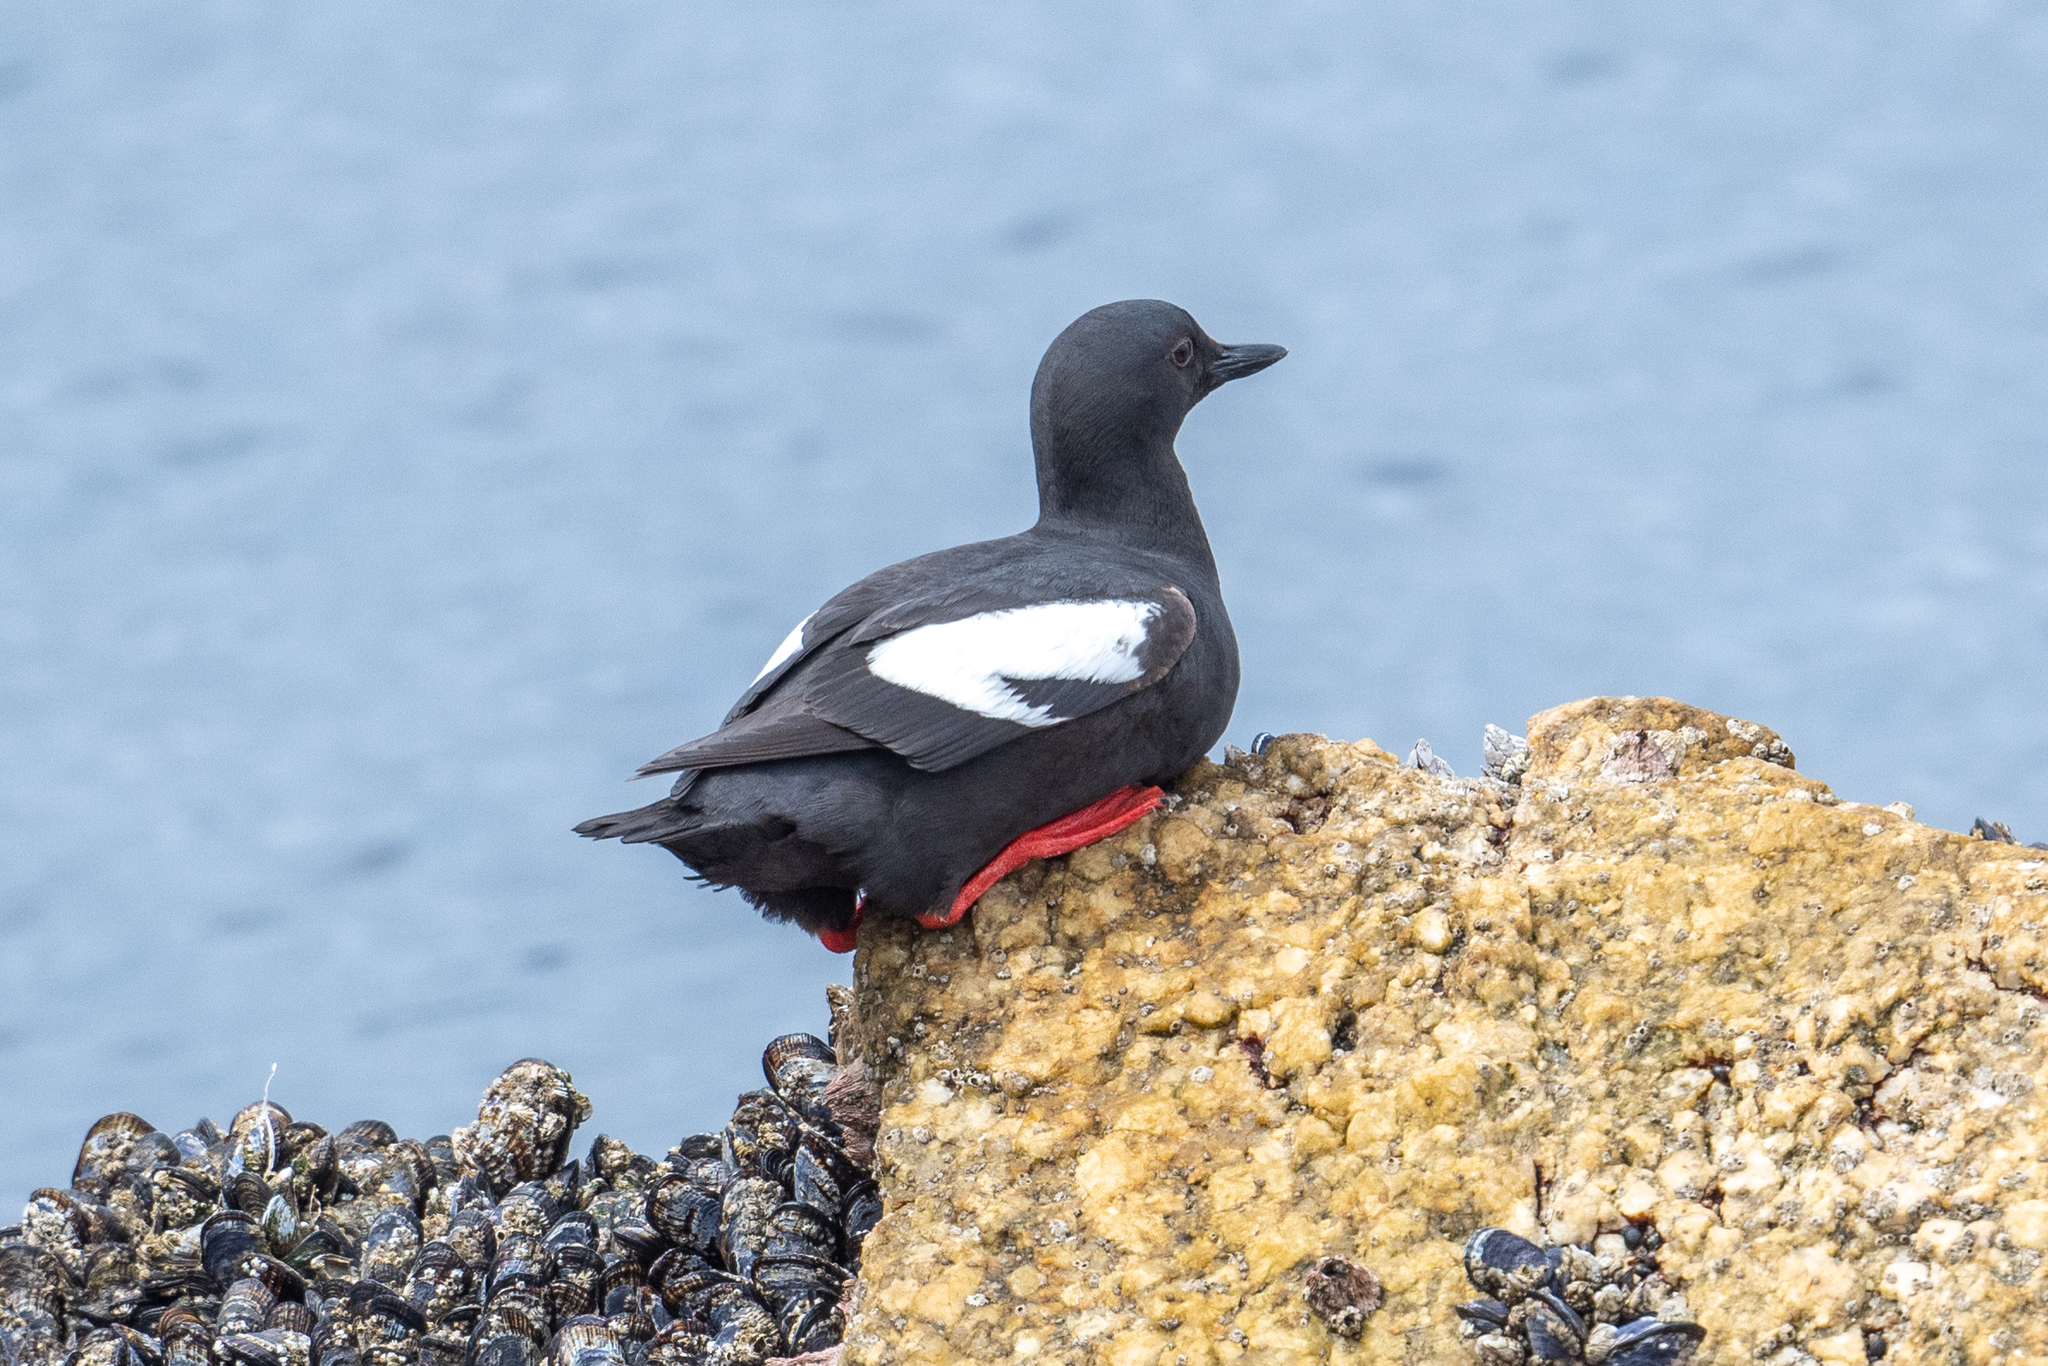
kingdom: Animalia
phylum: Chordata
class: Aves
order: Charadriiformes
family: Alcidae
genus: Cepphus
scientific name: Cepphus columba
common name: Pigeon guillemot
